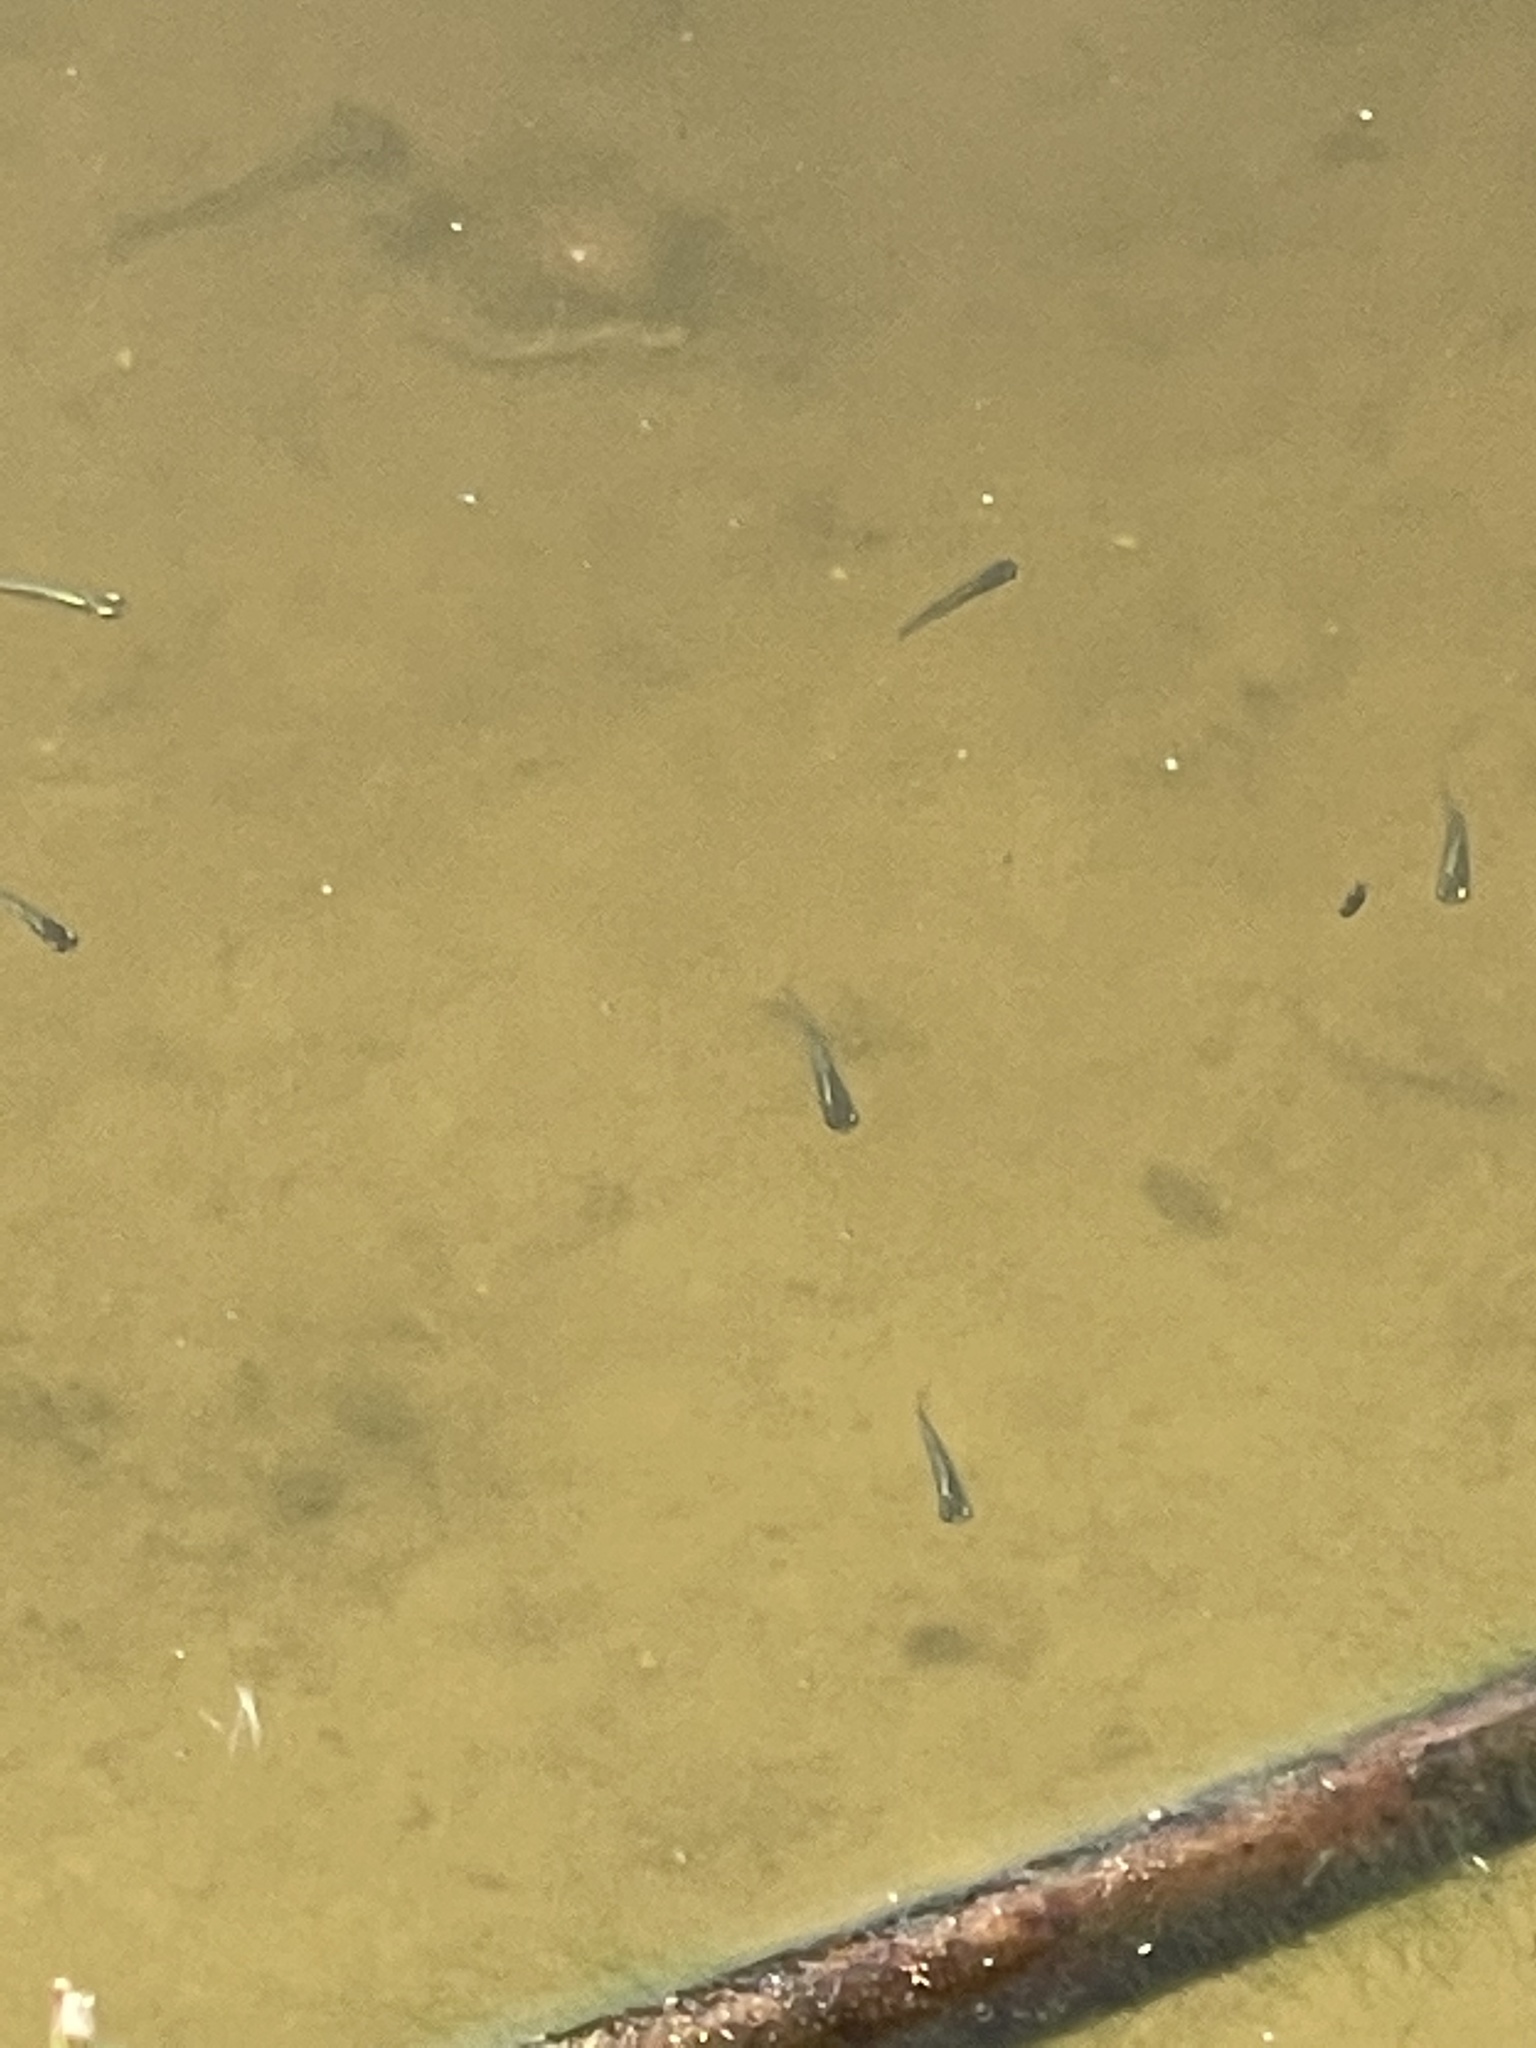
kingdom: Animalia
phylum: Chordata
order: Cyprinodontiformes
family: Poeciliidae
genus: Gambusia
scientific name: Gambusia holbrooki
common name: Eastern mosquitofish
